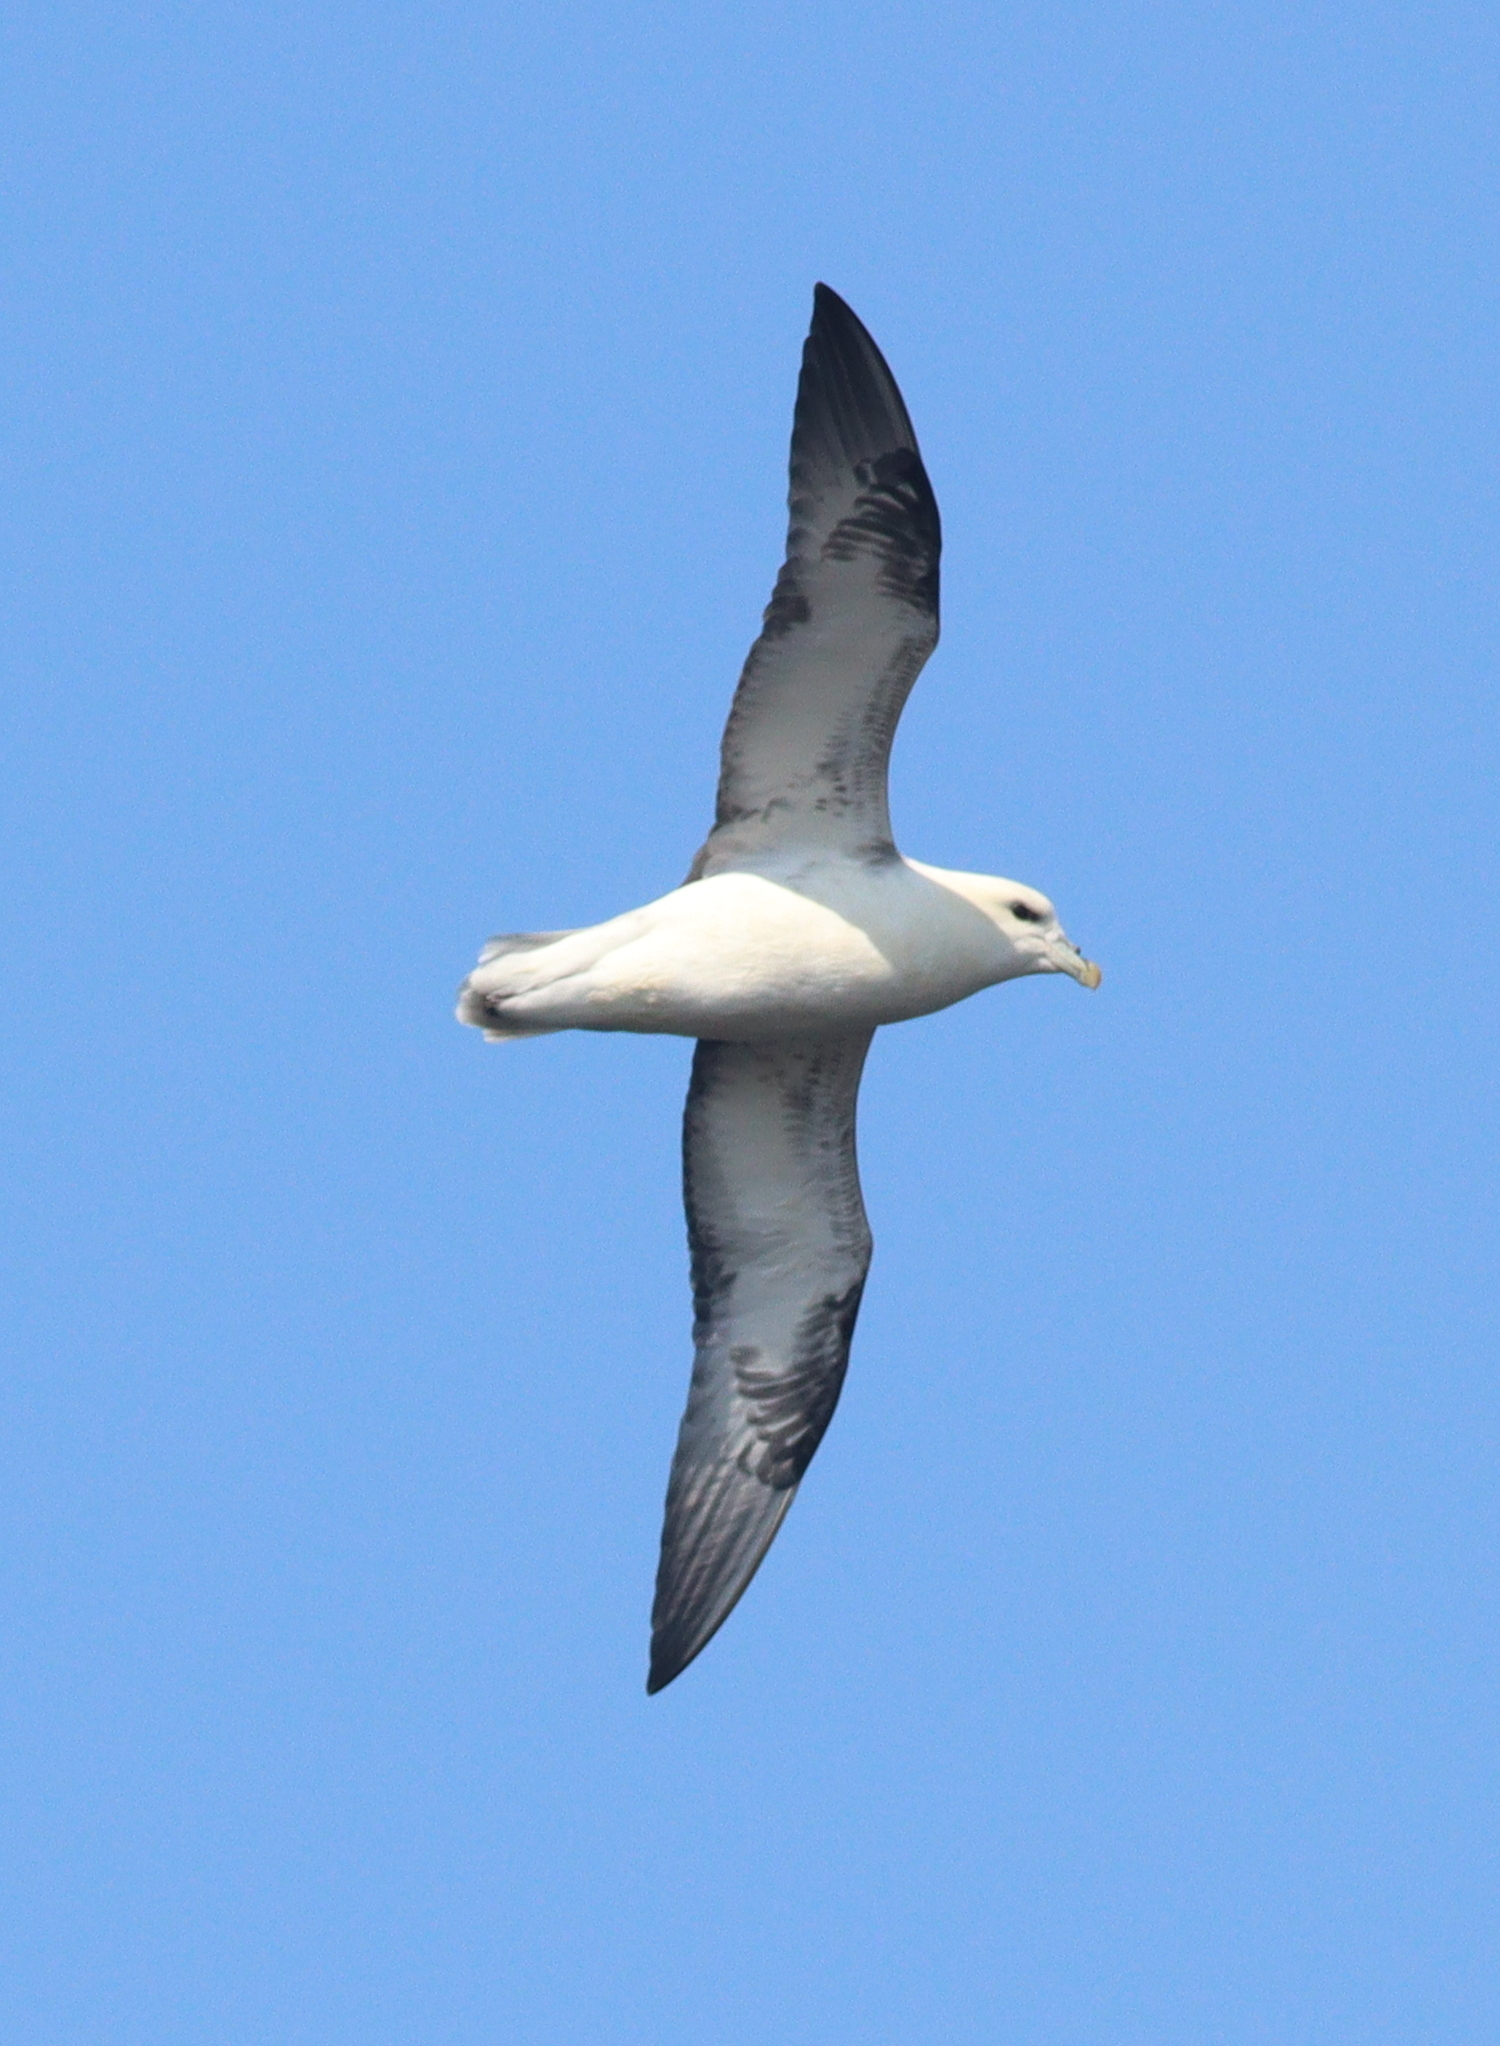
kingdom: Animalia
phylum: Chordata
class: Aves
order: Procellariiformes
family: Procellariidae
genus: Fulmarus
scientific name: Fulmarus glacialis
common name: Northern fulmar
